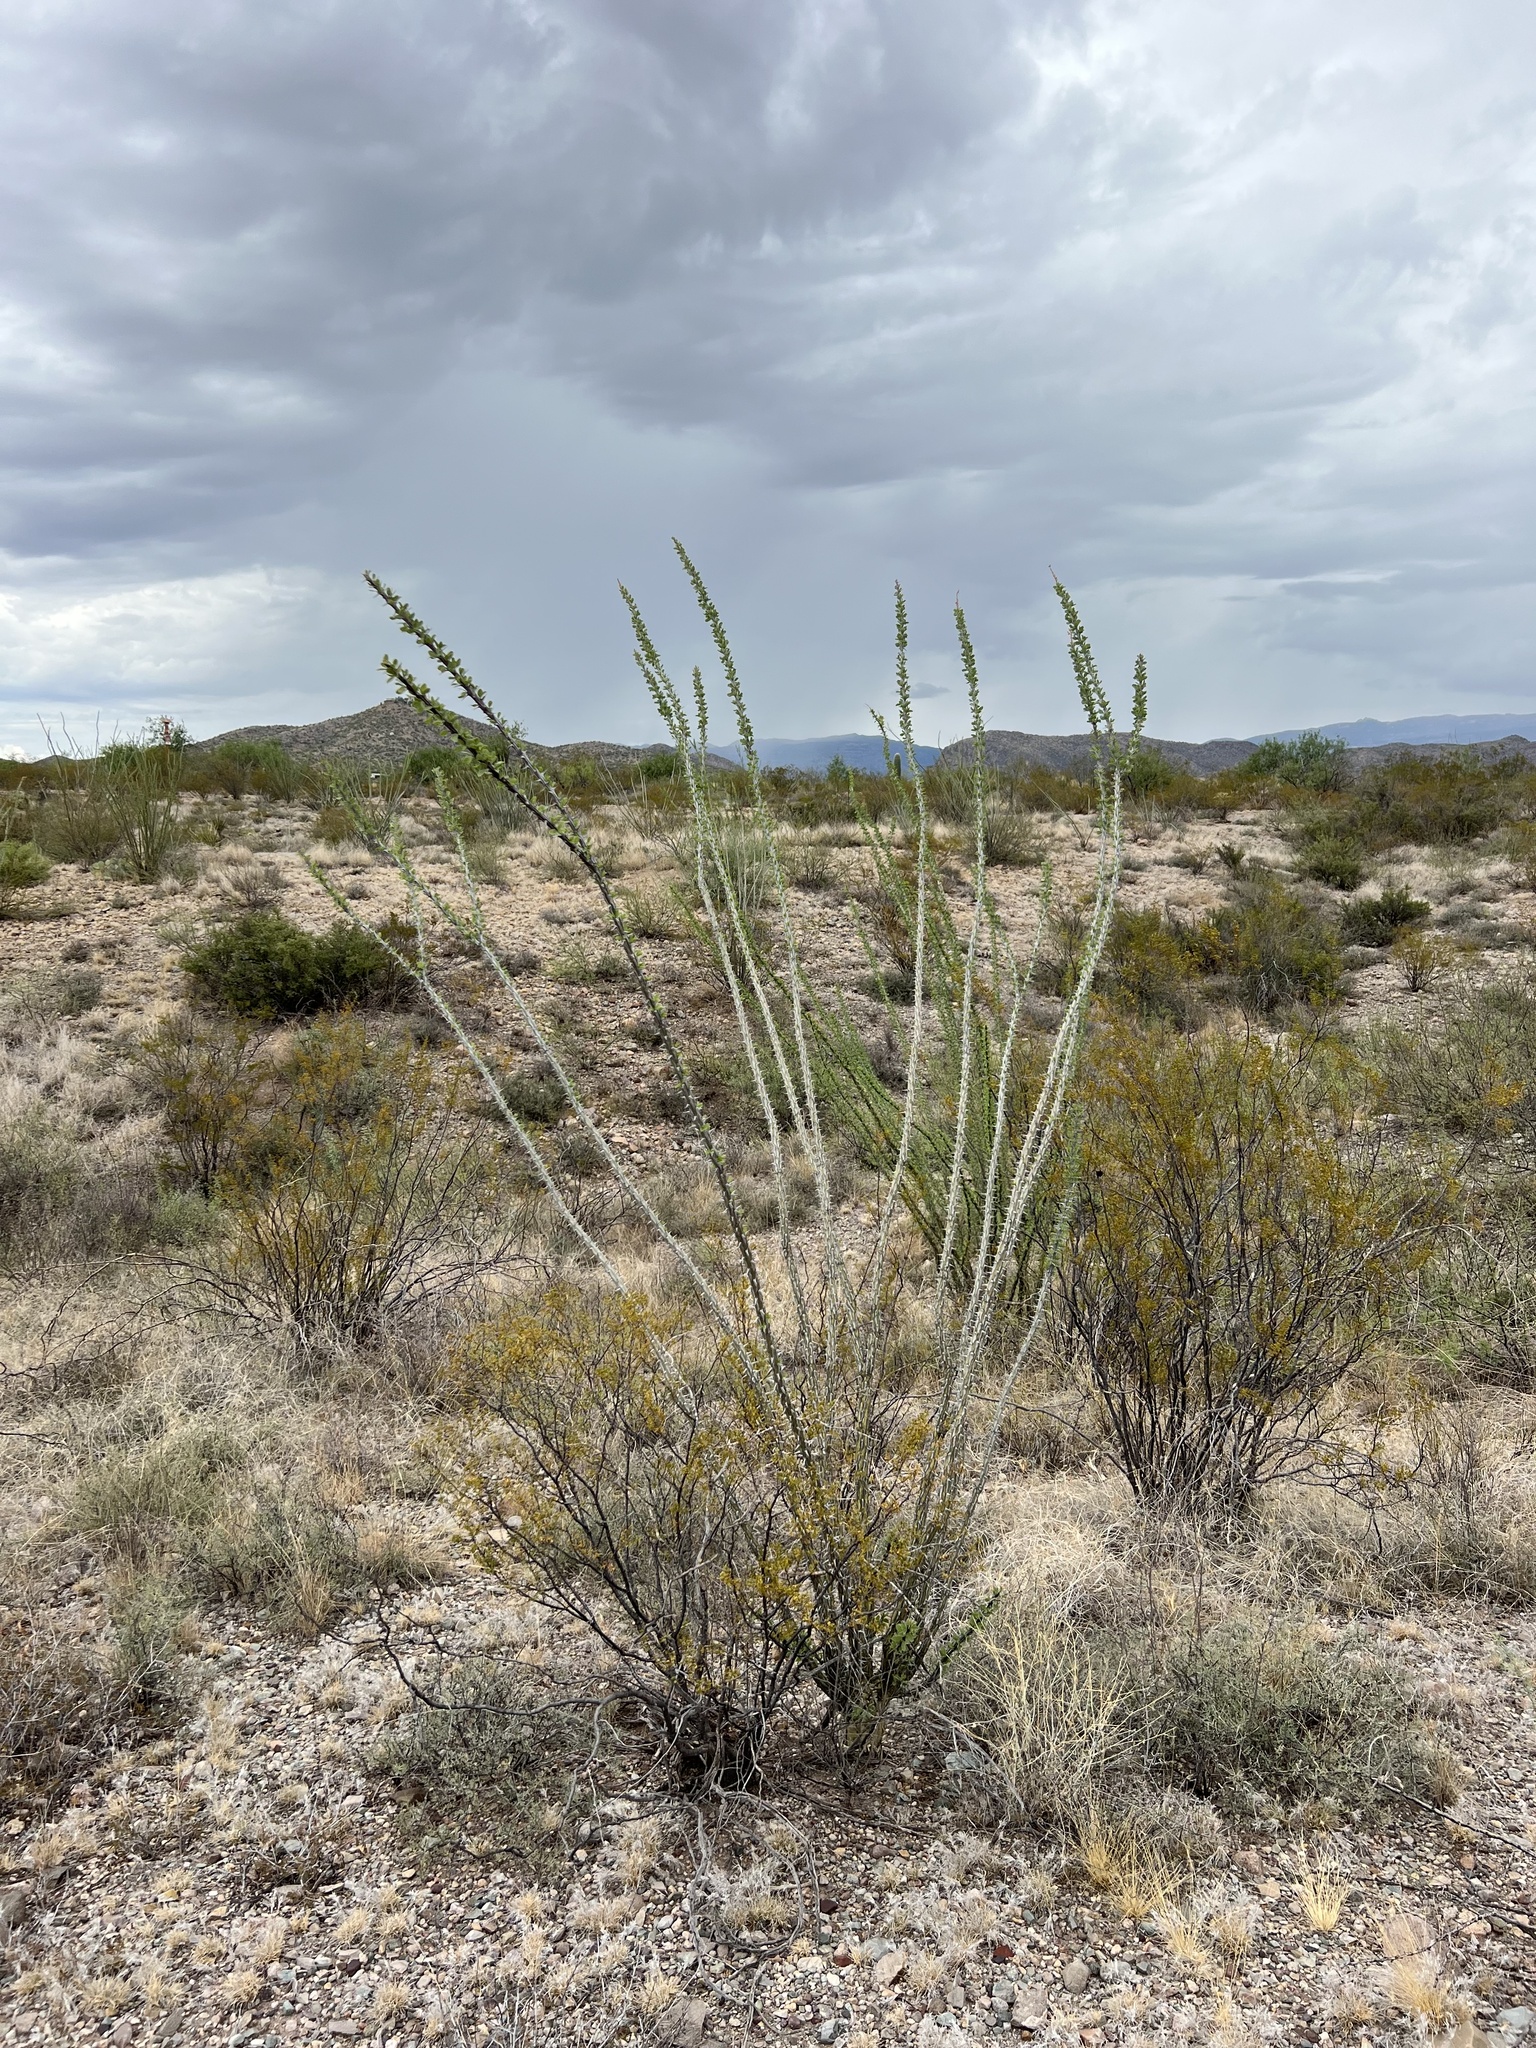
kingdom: Plantae
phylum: Tracheophyta
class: Magnoliopsida
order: Ericales
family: Fouquieriaceae
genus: Fouquieria
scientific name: Fouquieria splendens
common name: Vine-cactus
